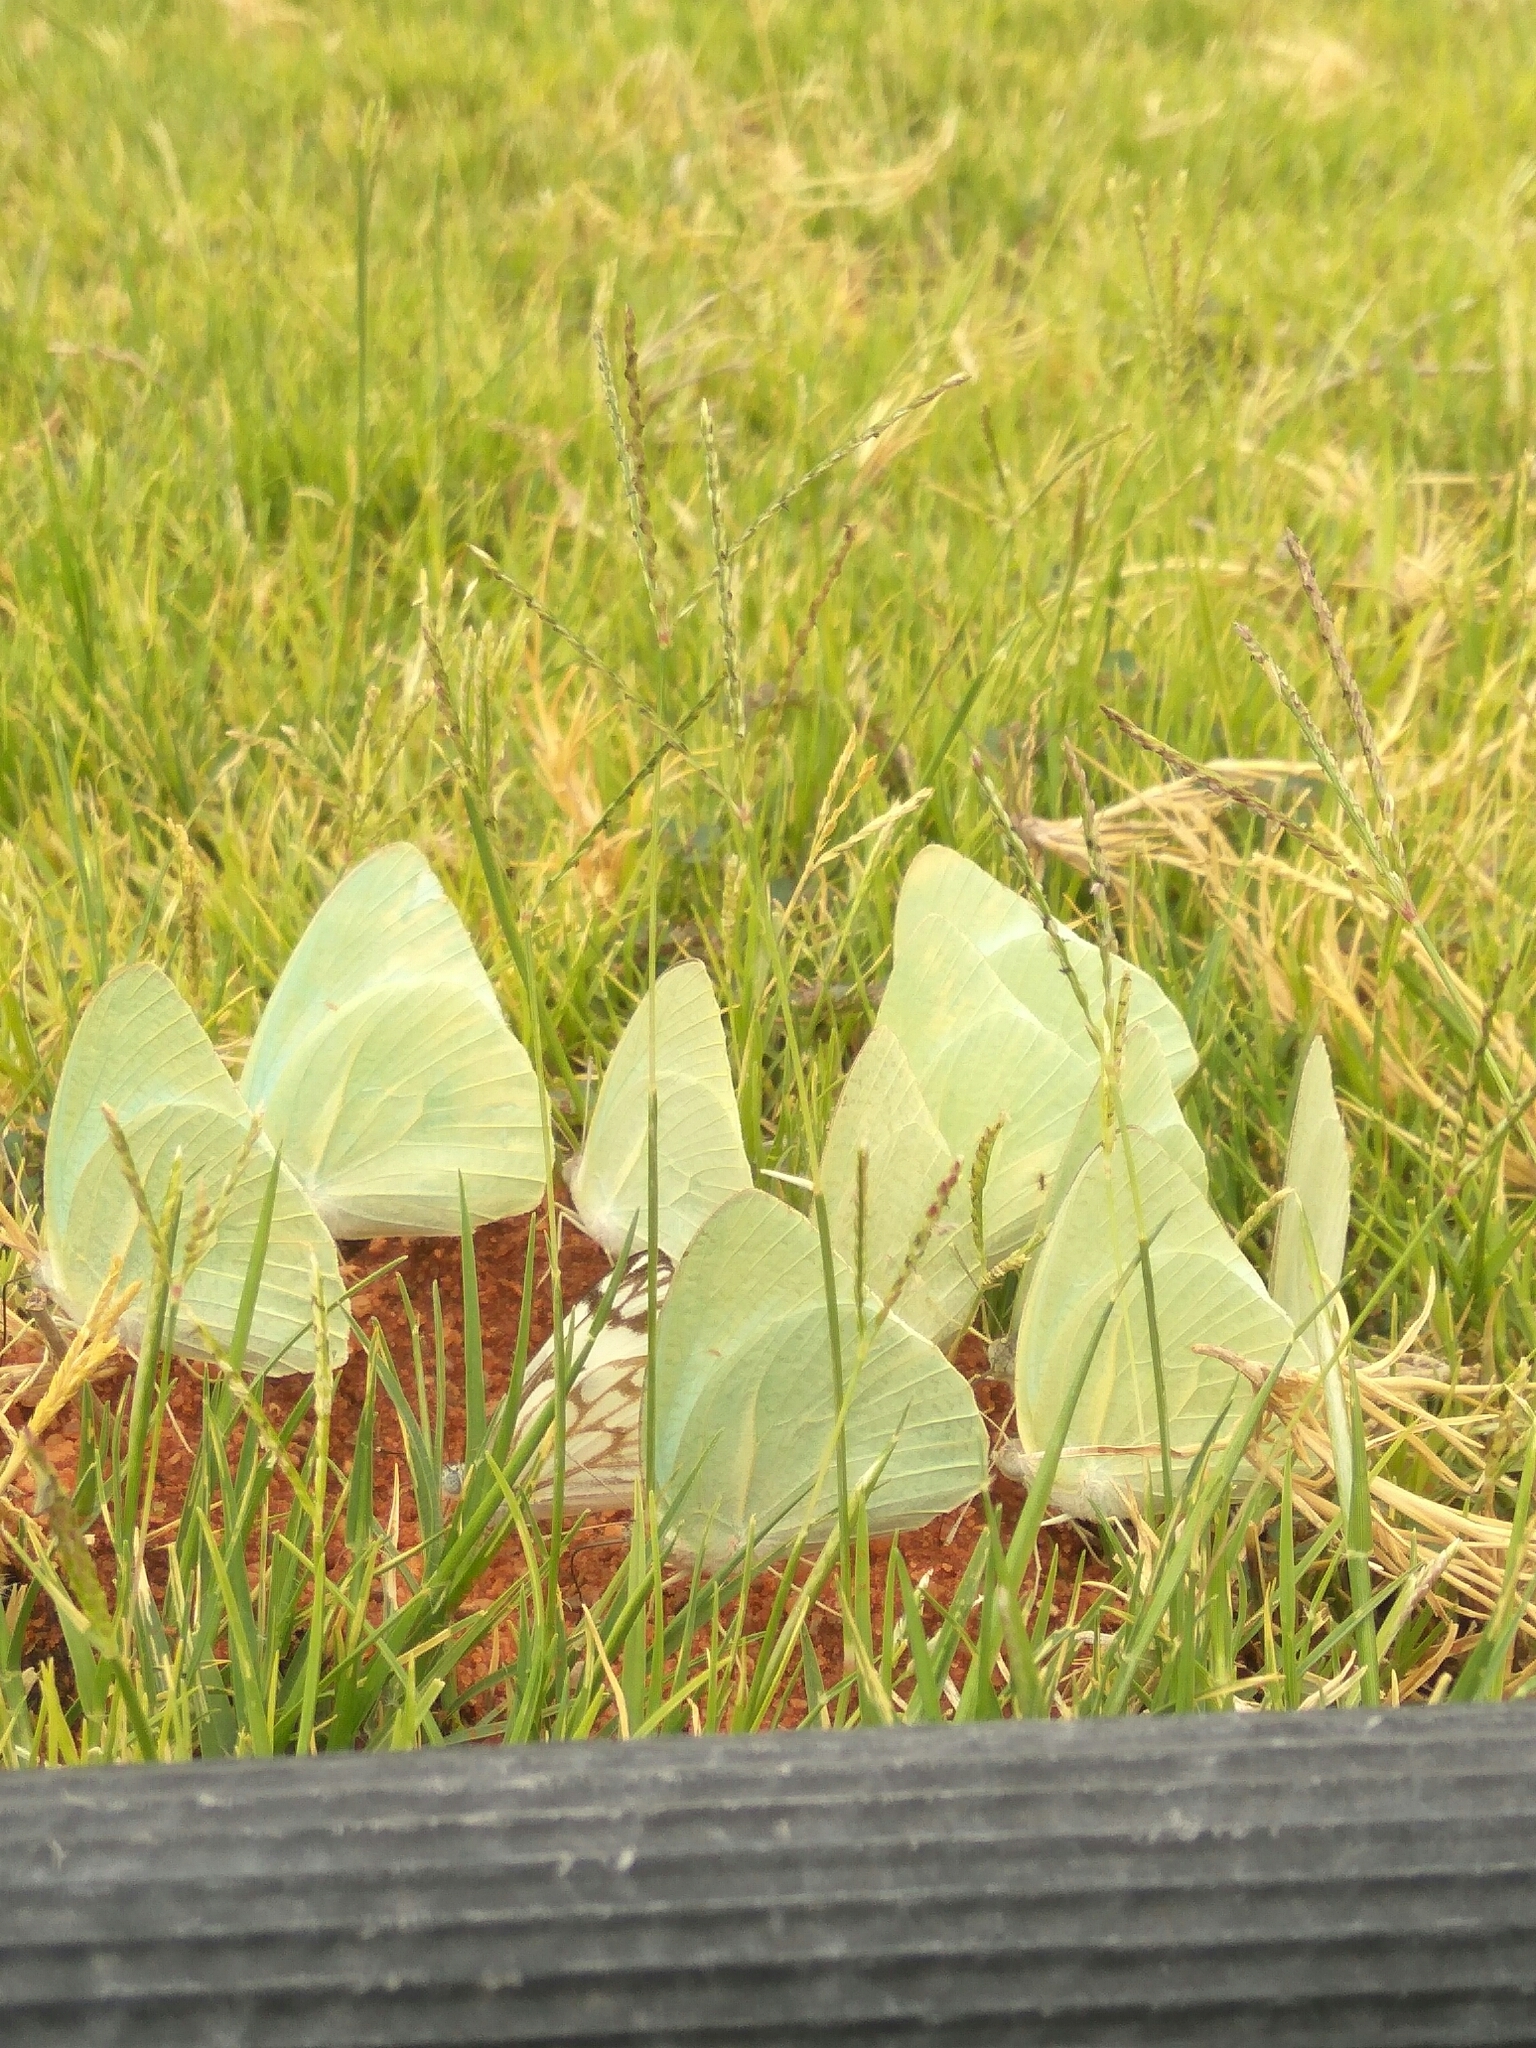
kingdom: Animalia
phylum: Arthropoda
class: Insecta
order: Lepidoptera
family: Pieridae
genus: Catopsilia
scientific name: Catopsilia florella
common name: African migrant
